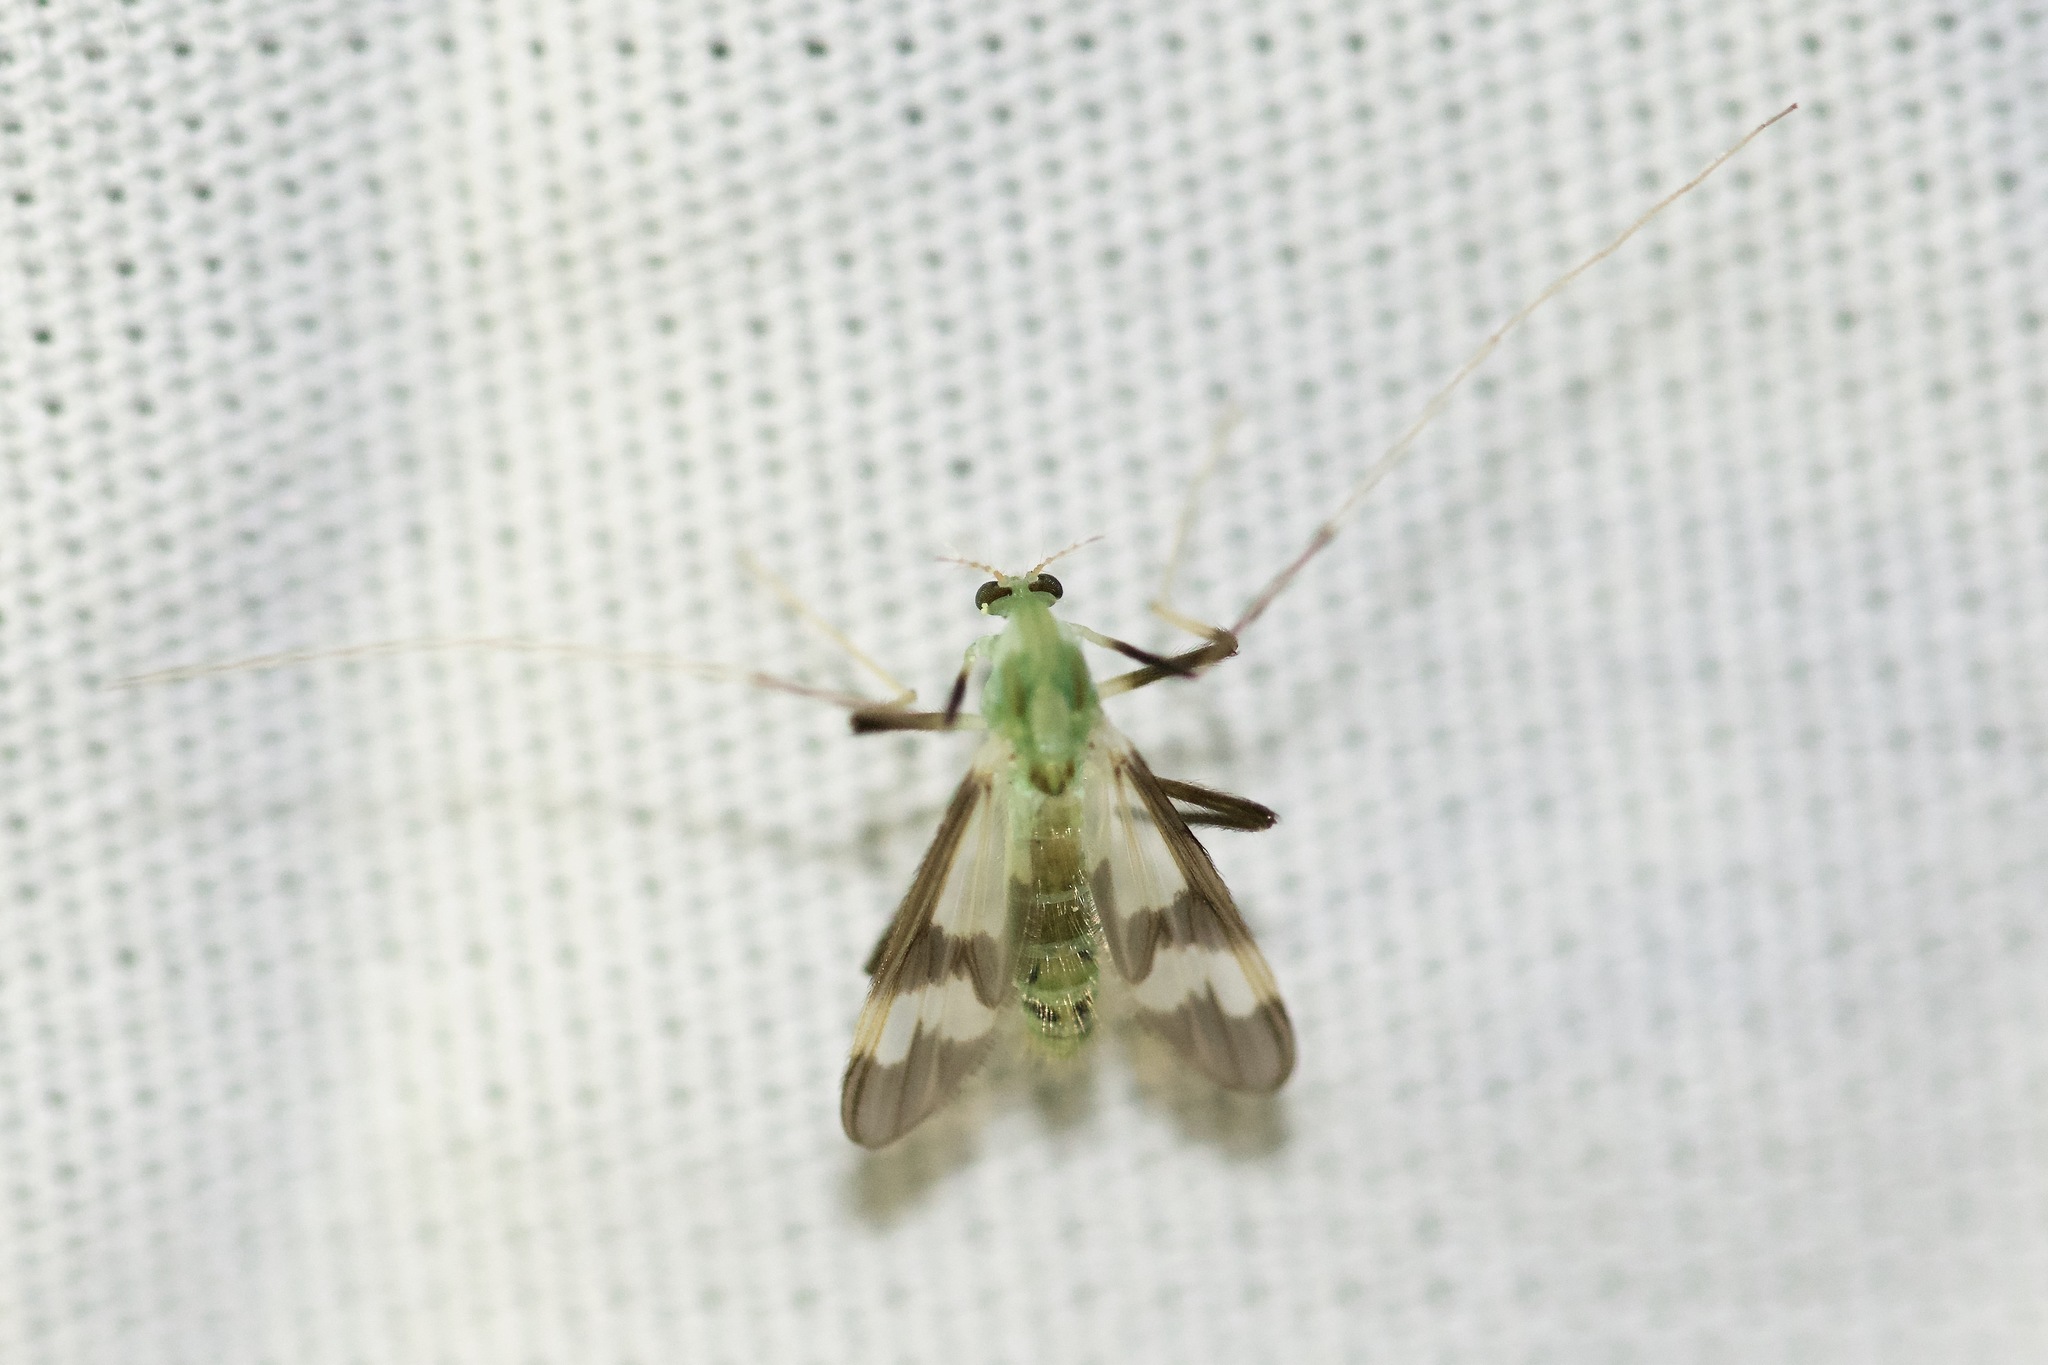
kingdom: Animalia
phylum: Arthropoda
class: Insecta
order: Diptera
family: Chironomidae
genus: Stenochironomus
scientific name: Stenochironomus hilaris
